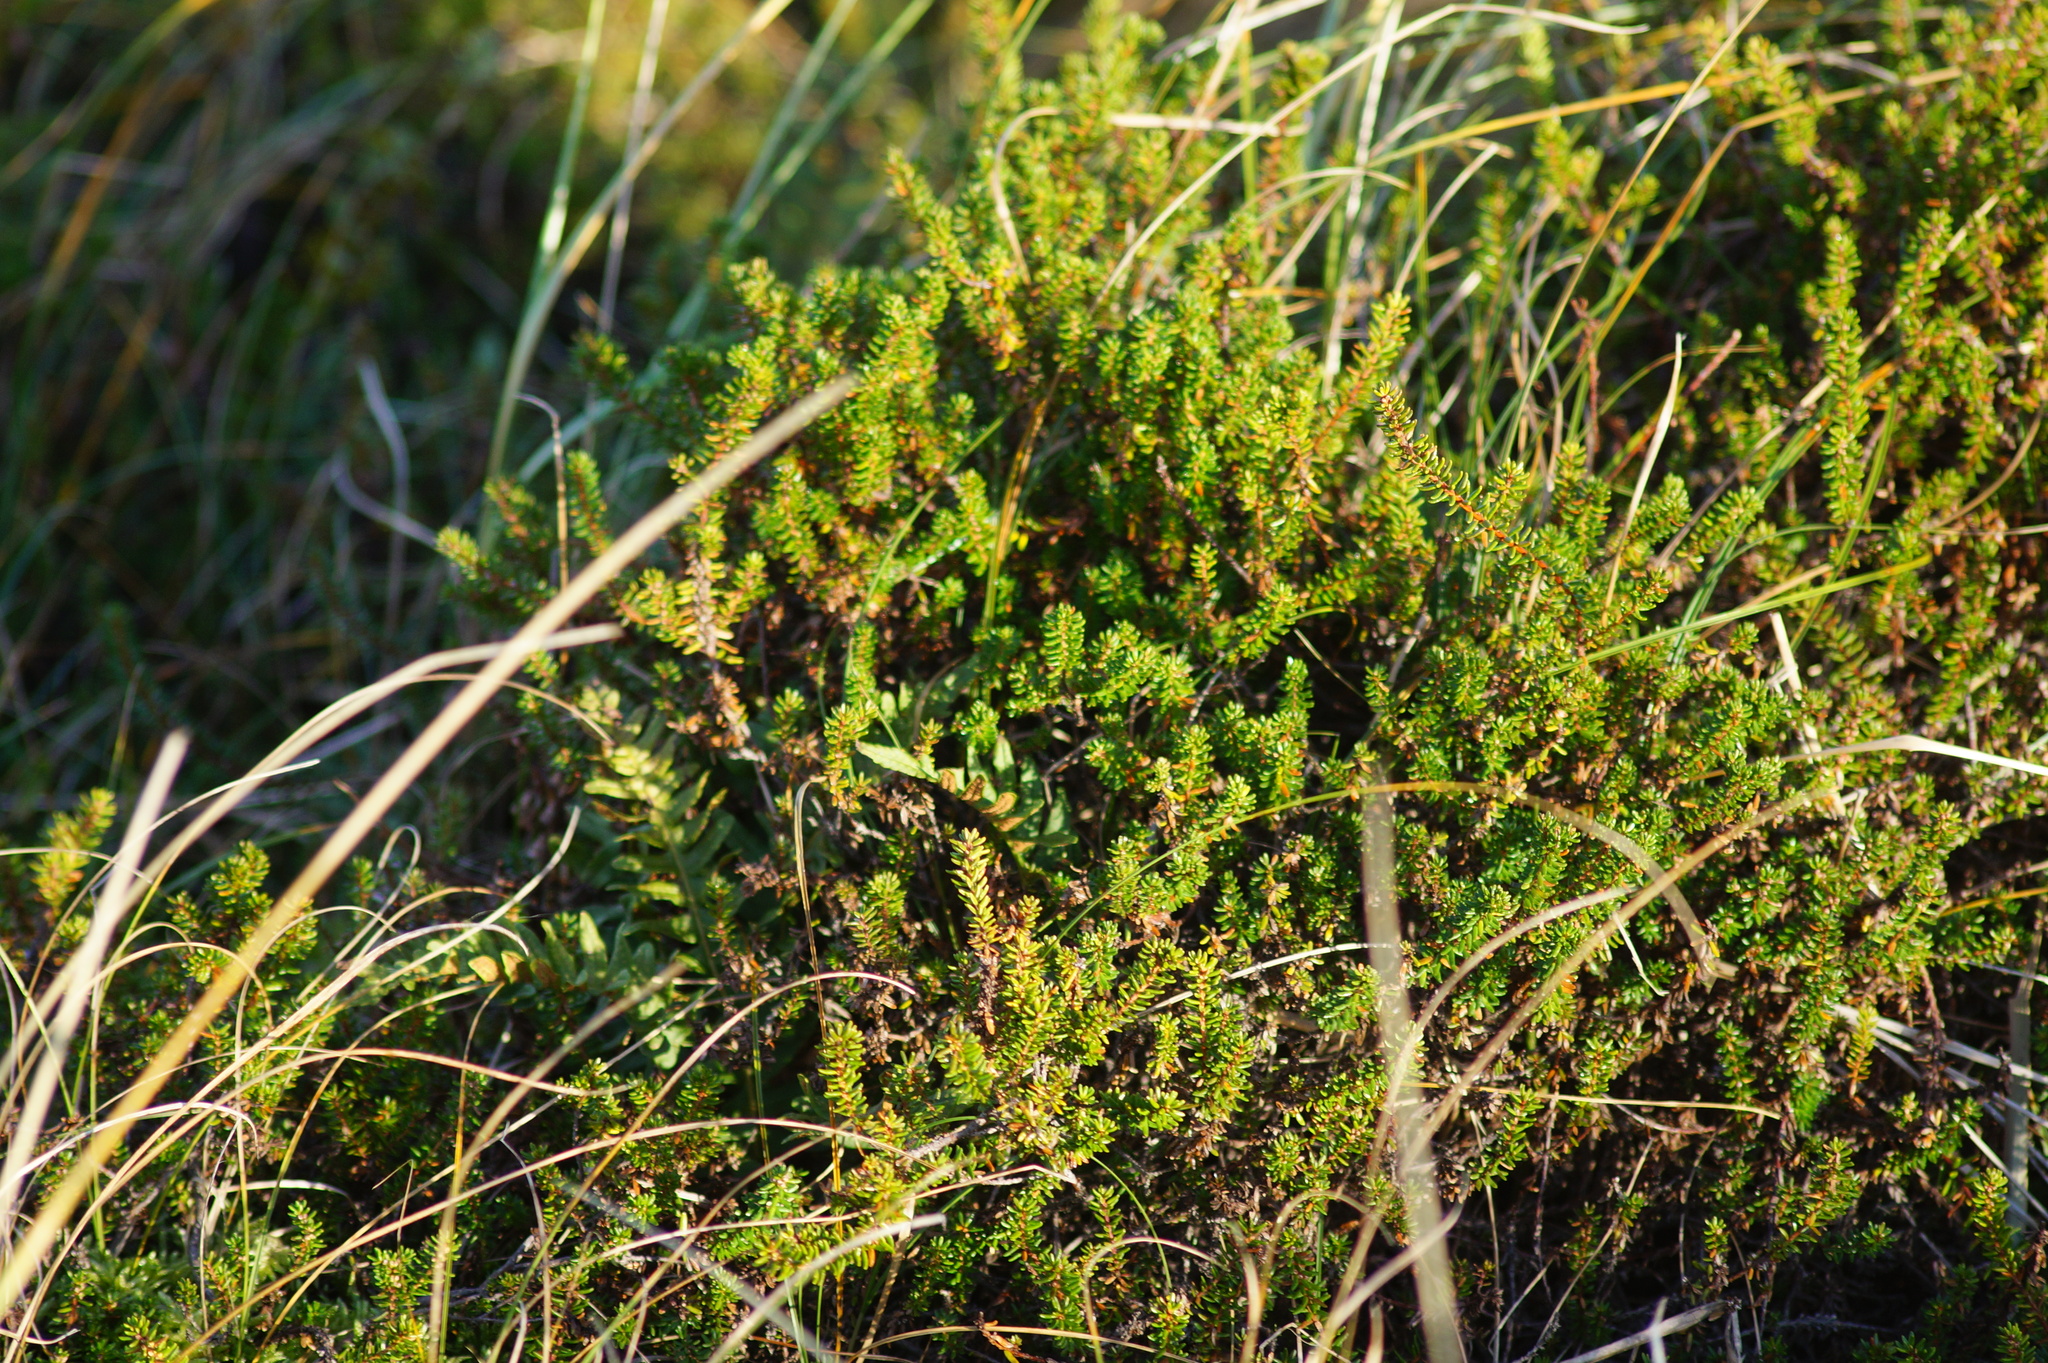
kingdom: Plantae
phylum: Tracheophyta
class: Magnoliopsida
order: Ericales
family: Ericaceae
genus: Empetrum
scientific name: Empetrum nigrum
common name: Black crowberry
